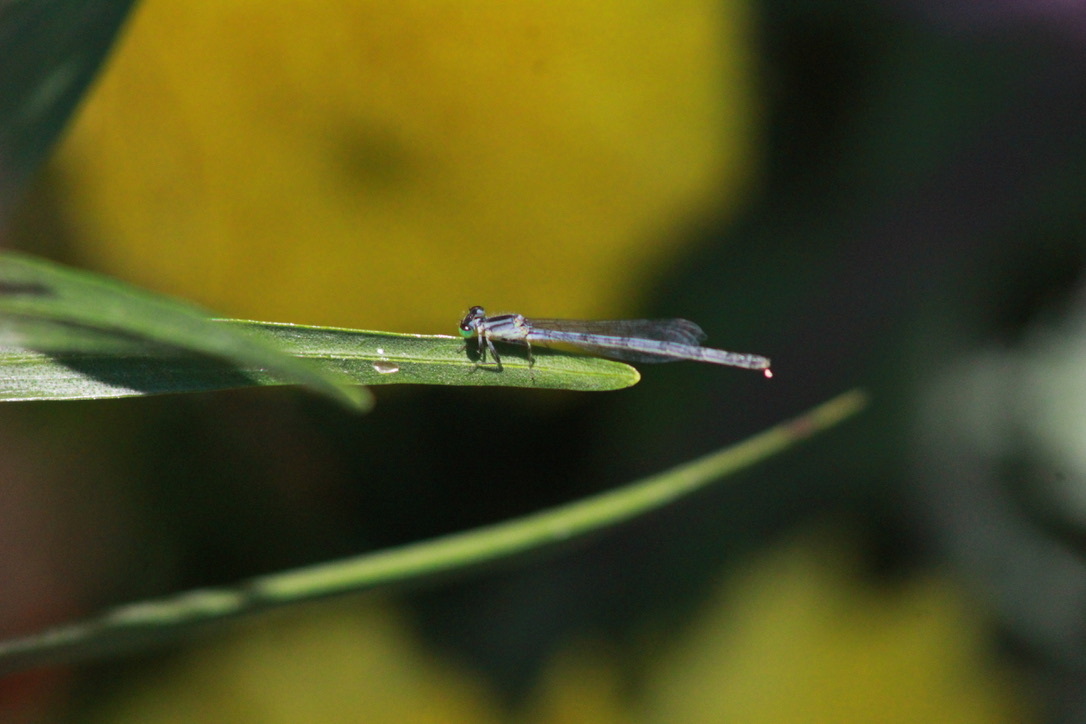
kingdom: Animalia
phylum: Arthropoda
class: Insecta
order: Odonata
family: Coenagrionidae
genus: Ischnura
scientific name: Ischnura verticalis
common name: Eastern forktail
